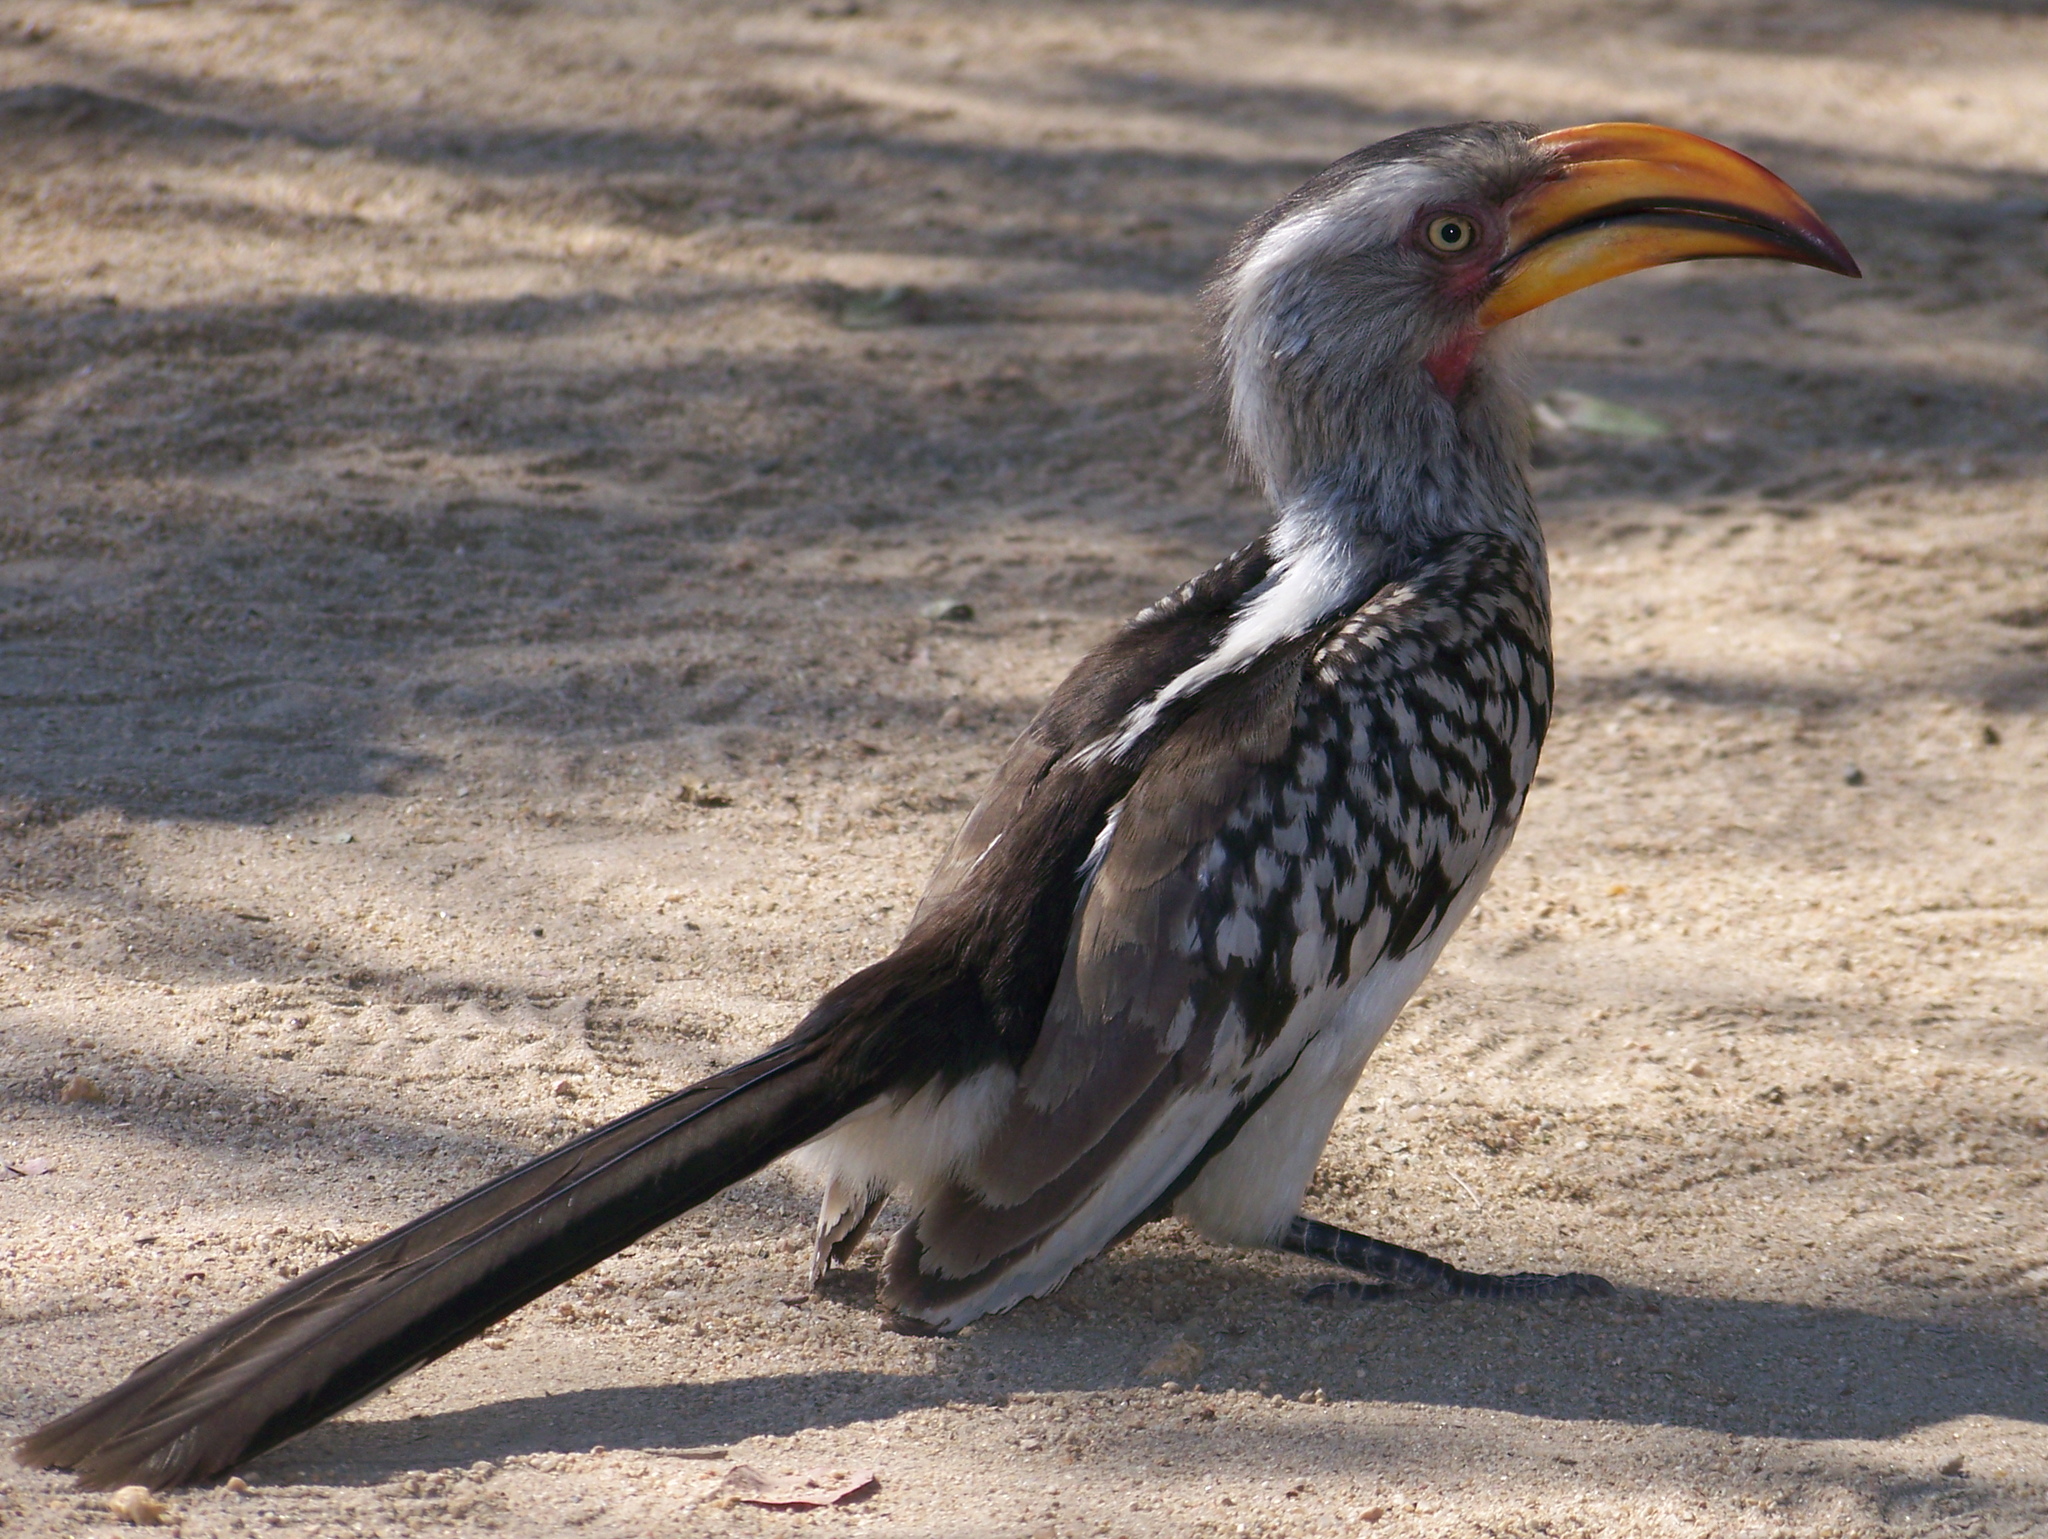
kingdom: Animalia
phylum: Chordata
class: Aves
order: Bucerotiformes
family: Bucerotidae
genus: Tockus
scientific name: Tockus leucomelas
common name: Southern yellow-billed hornbill
